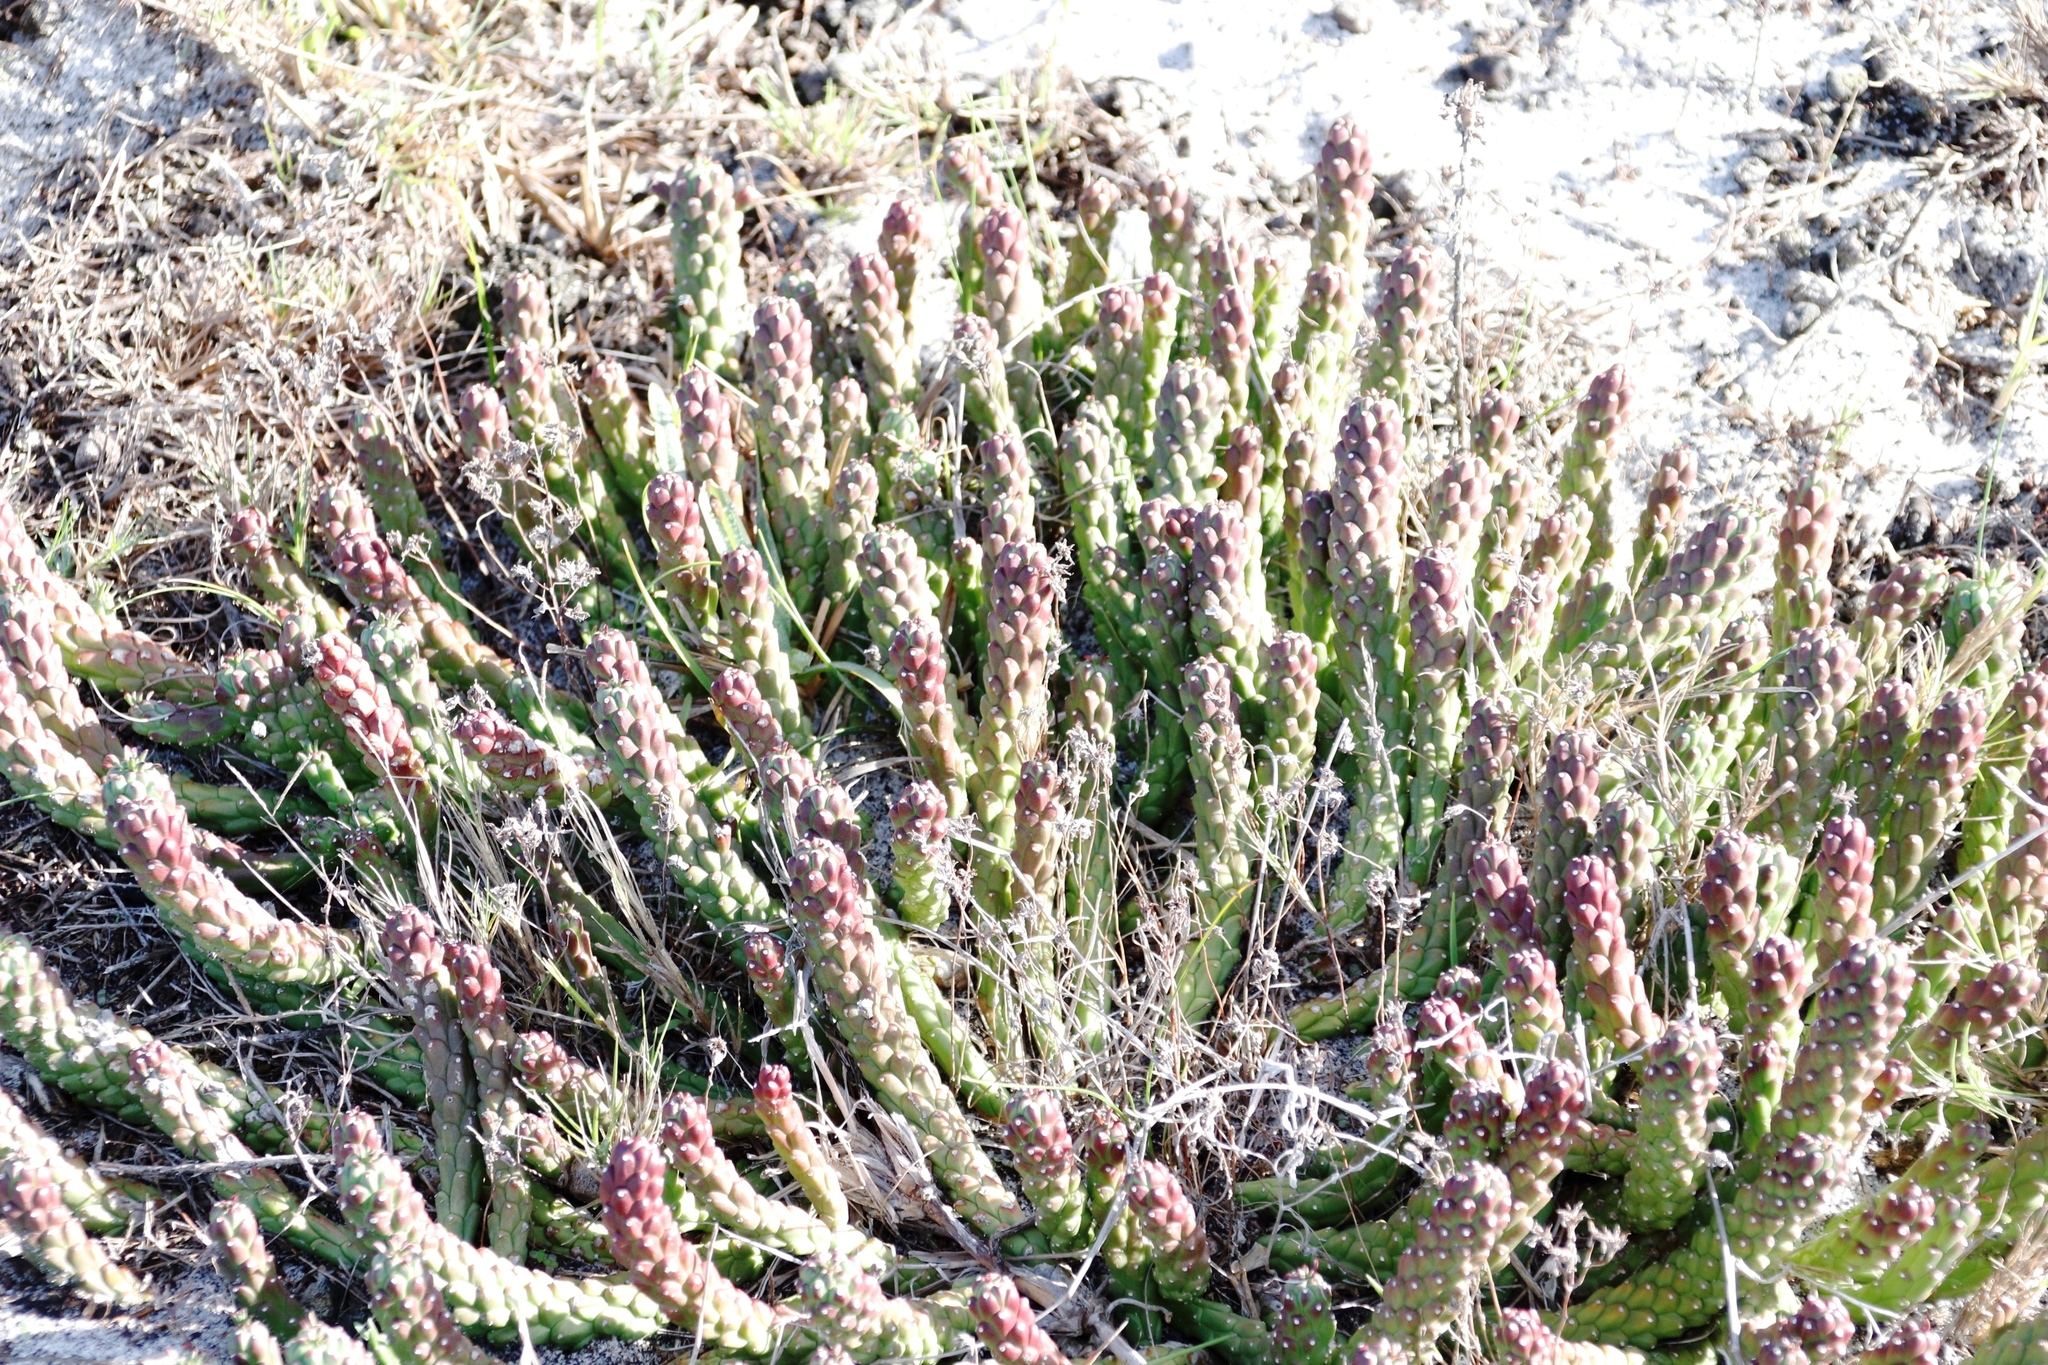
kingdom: Plantae
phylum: Tracheophyta
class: Magnoliopsida
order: Malpighiales
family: Euphorbiaceae
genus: Euphorbia
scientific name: Euphorbia caput-medusae
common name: Medusa's-head
